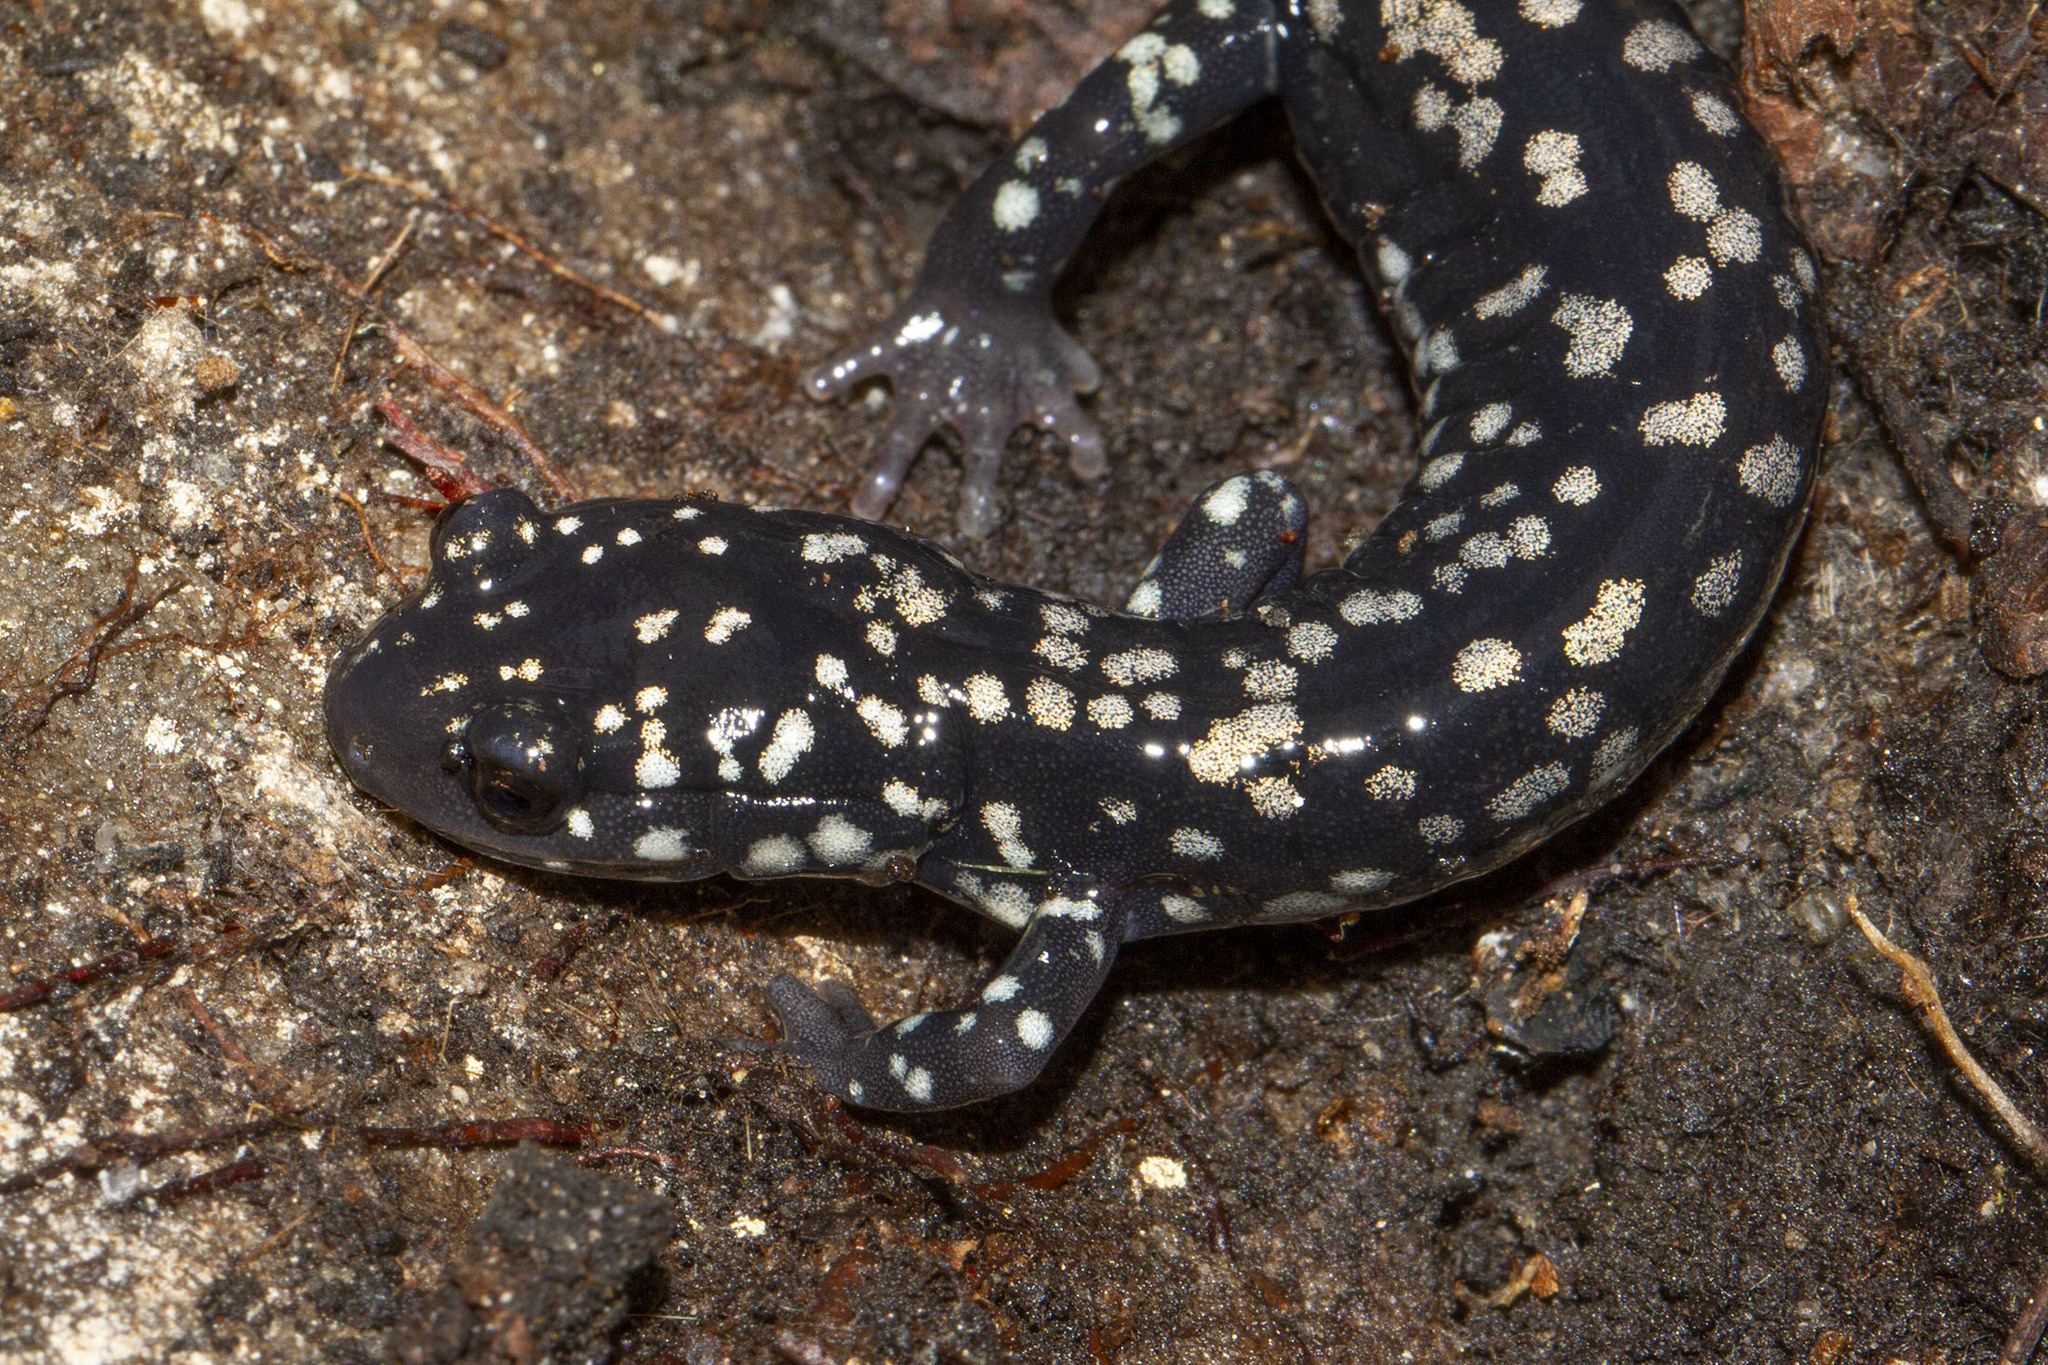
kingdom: Animalia
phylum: Chordata
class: Amphibia
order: Caudata
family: Plethodontidae
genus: Plethodon
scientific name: Plethodon glutinosus
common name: Northern slimy salamander
